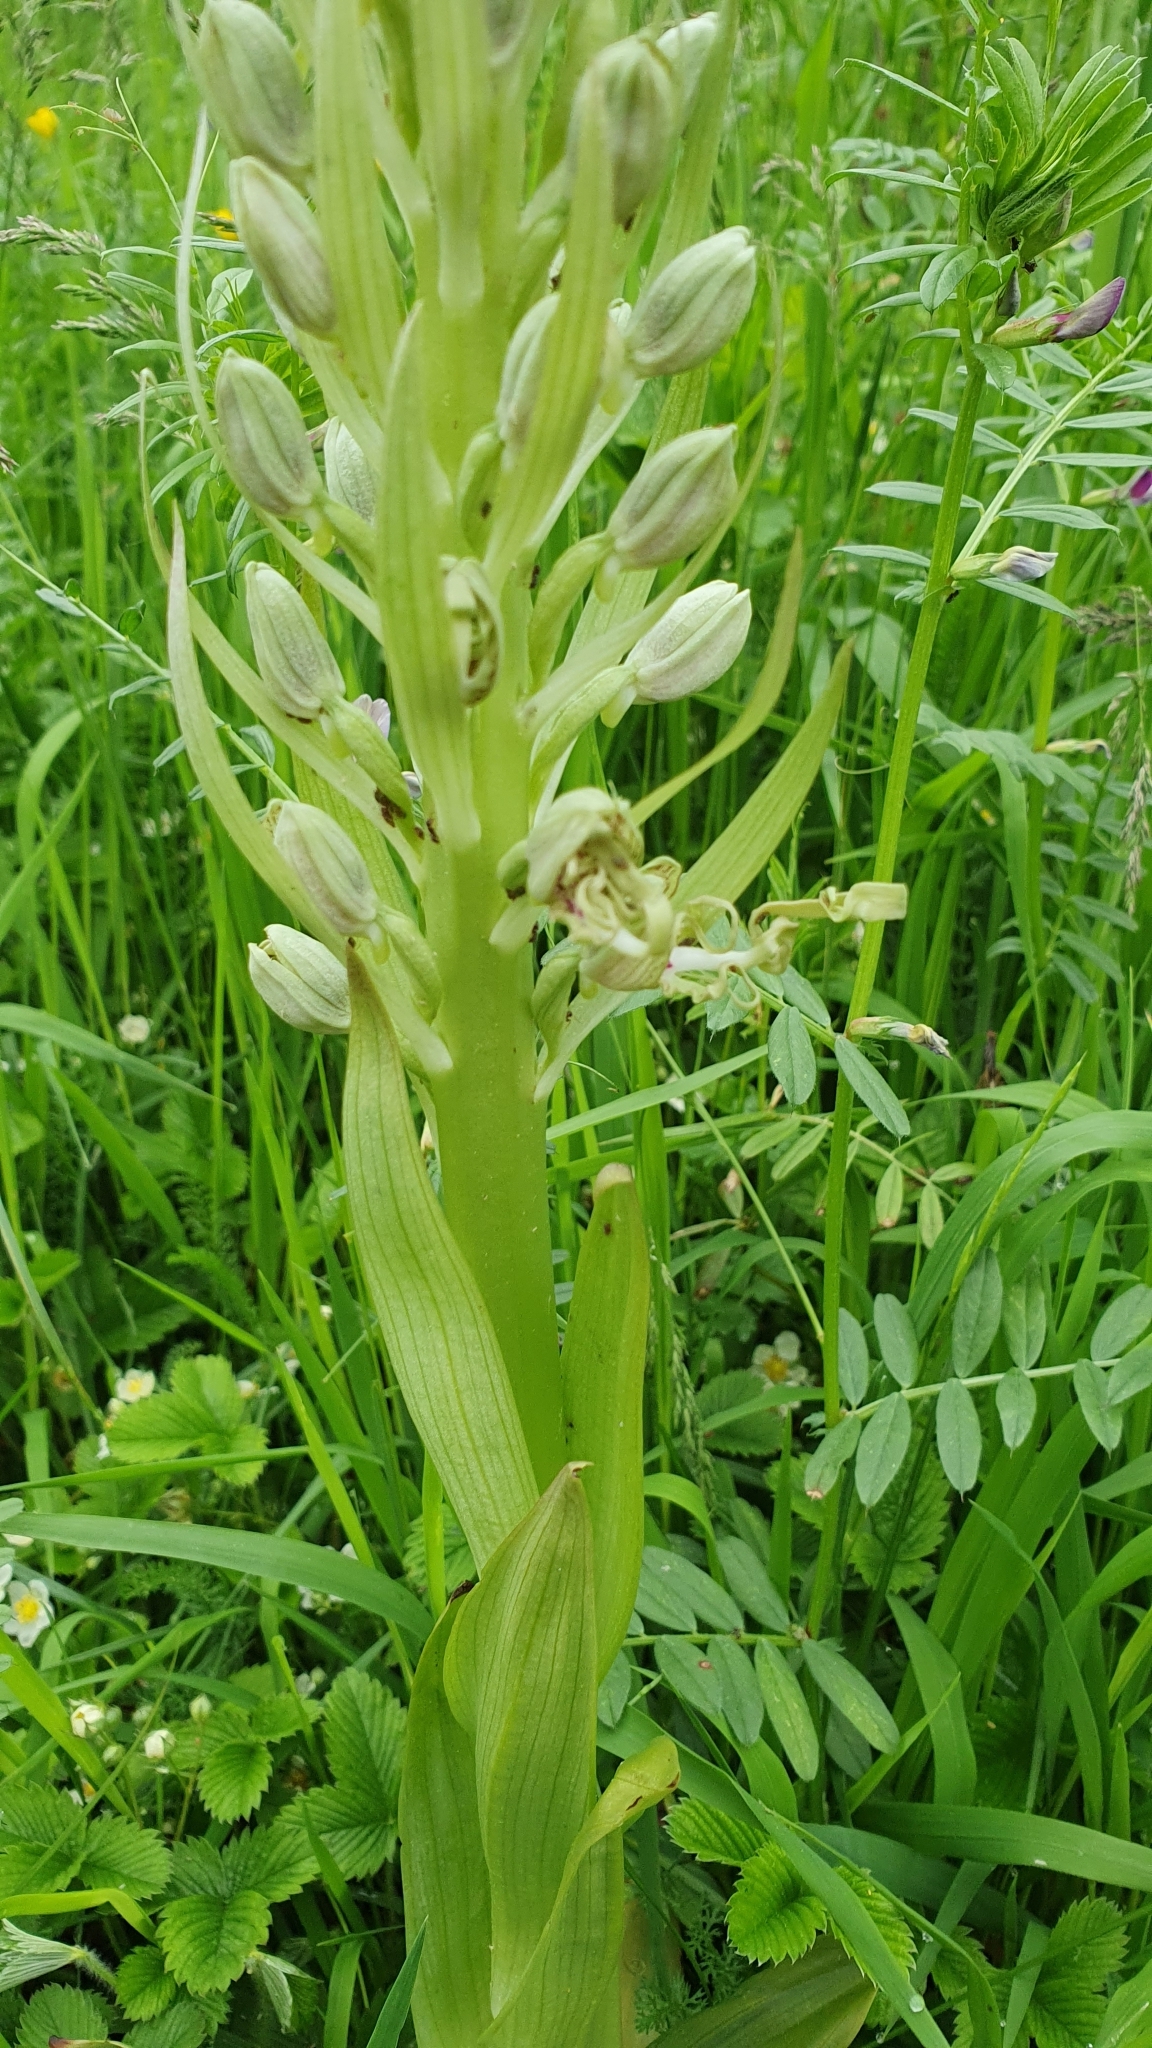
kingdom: Plantae
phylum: Tracheophyta
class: Liliopsida
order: Asparagales
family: Orchidaceae
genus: Himantoglossum
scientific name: Himantoglossum hircinum
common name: Lizard orchid
